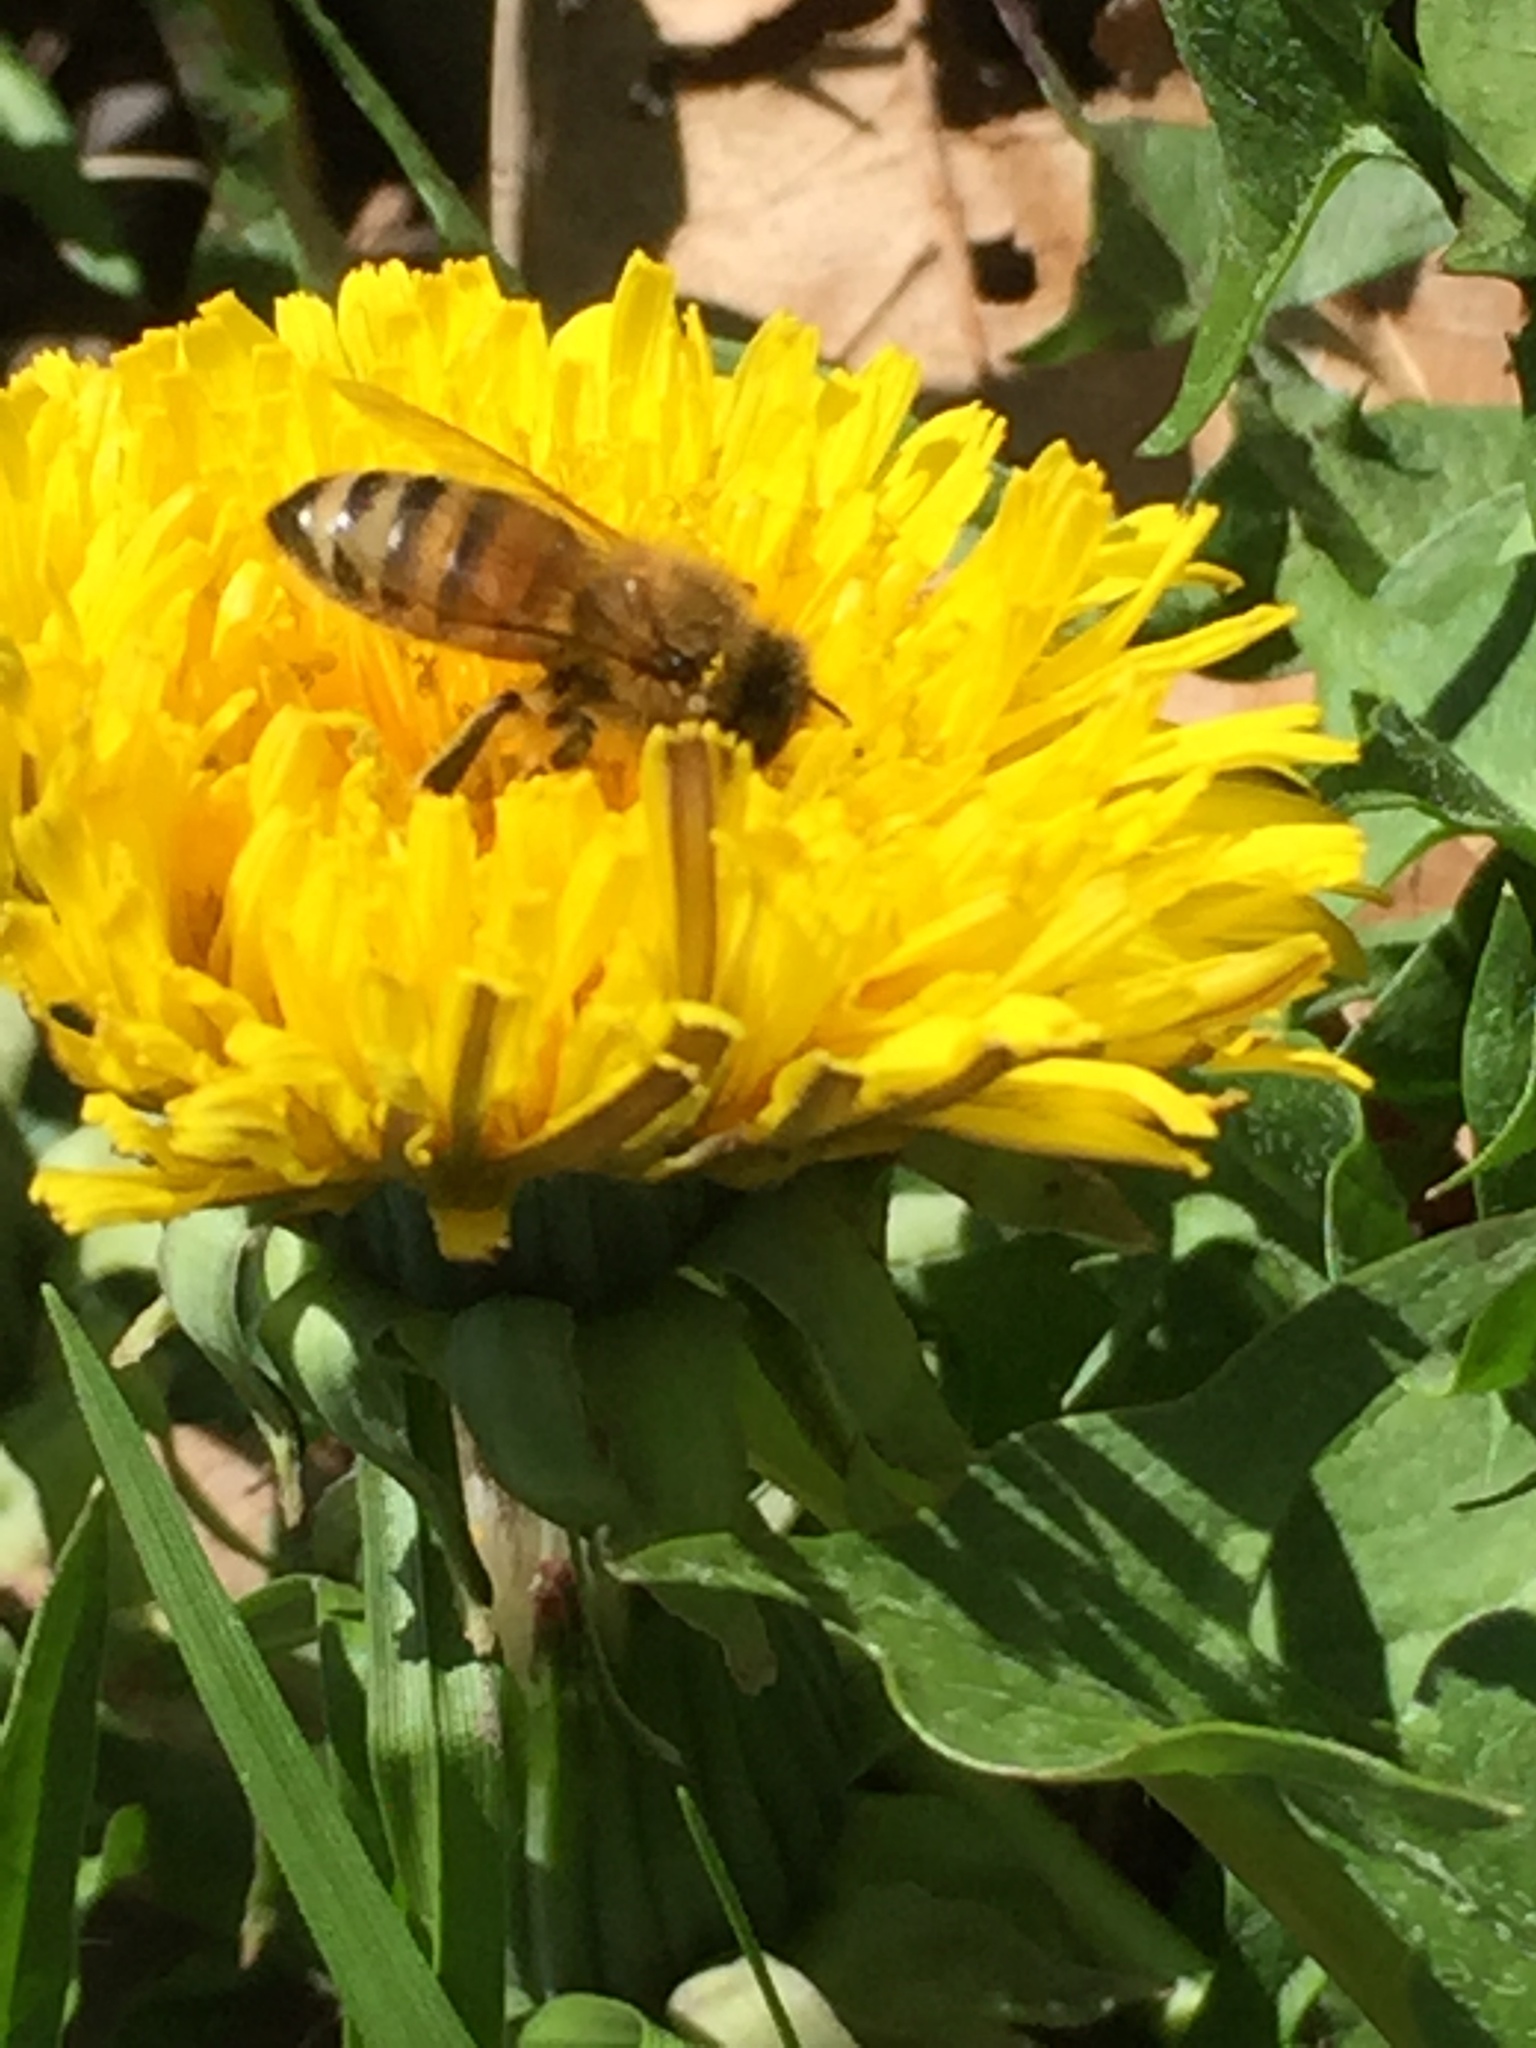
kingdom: Animalia
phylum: Arthropoda
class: Insecta
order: Hymenoptera
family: Apidae
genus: Apis
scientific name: Apis mellifera
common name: Honey bee
